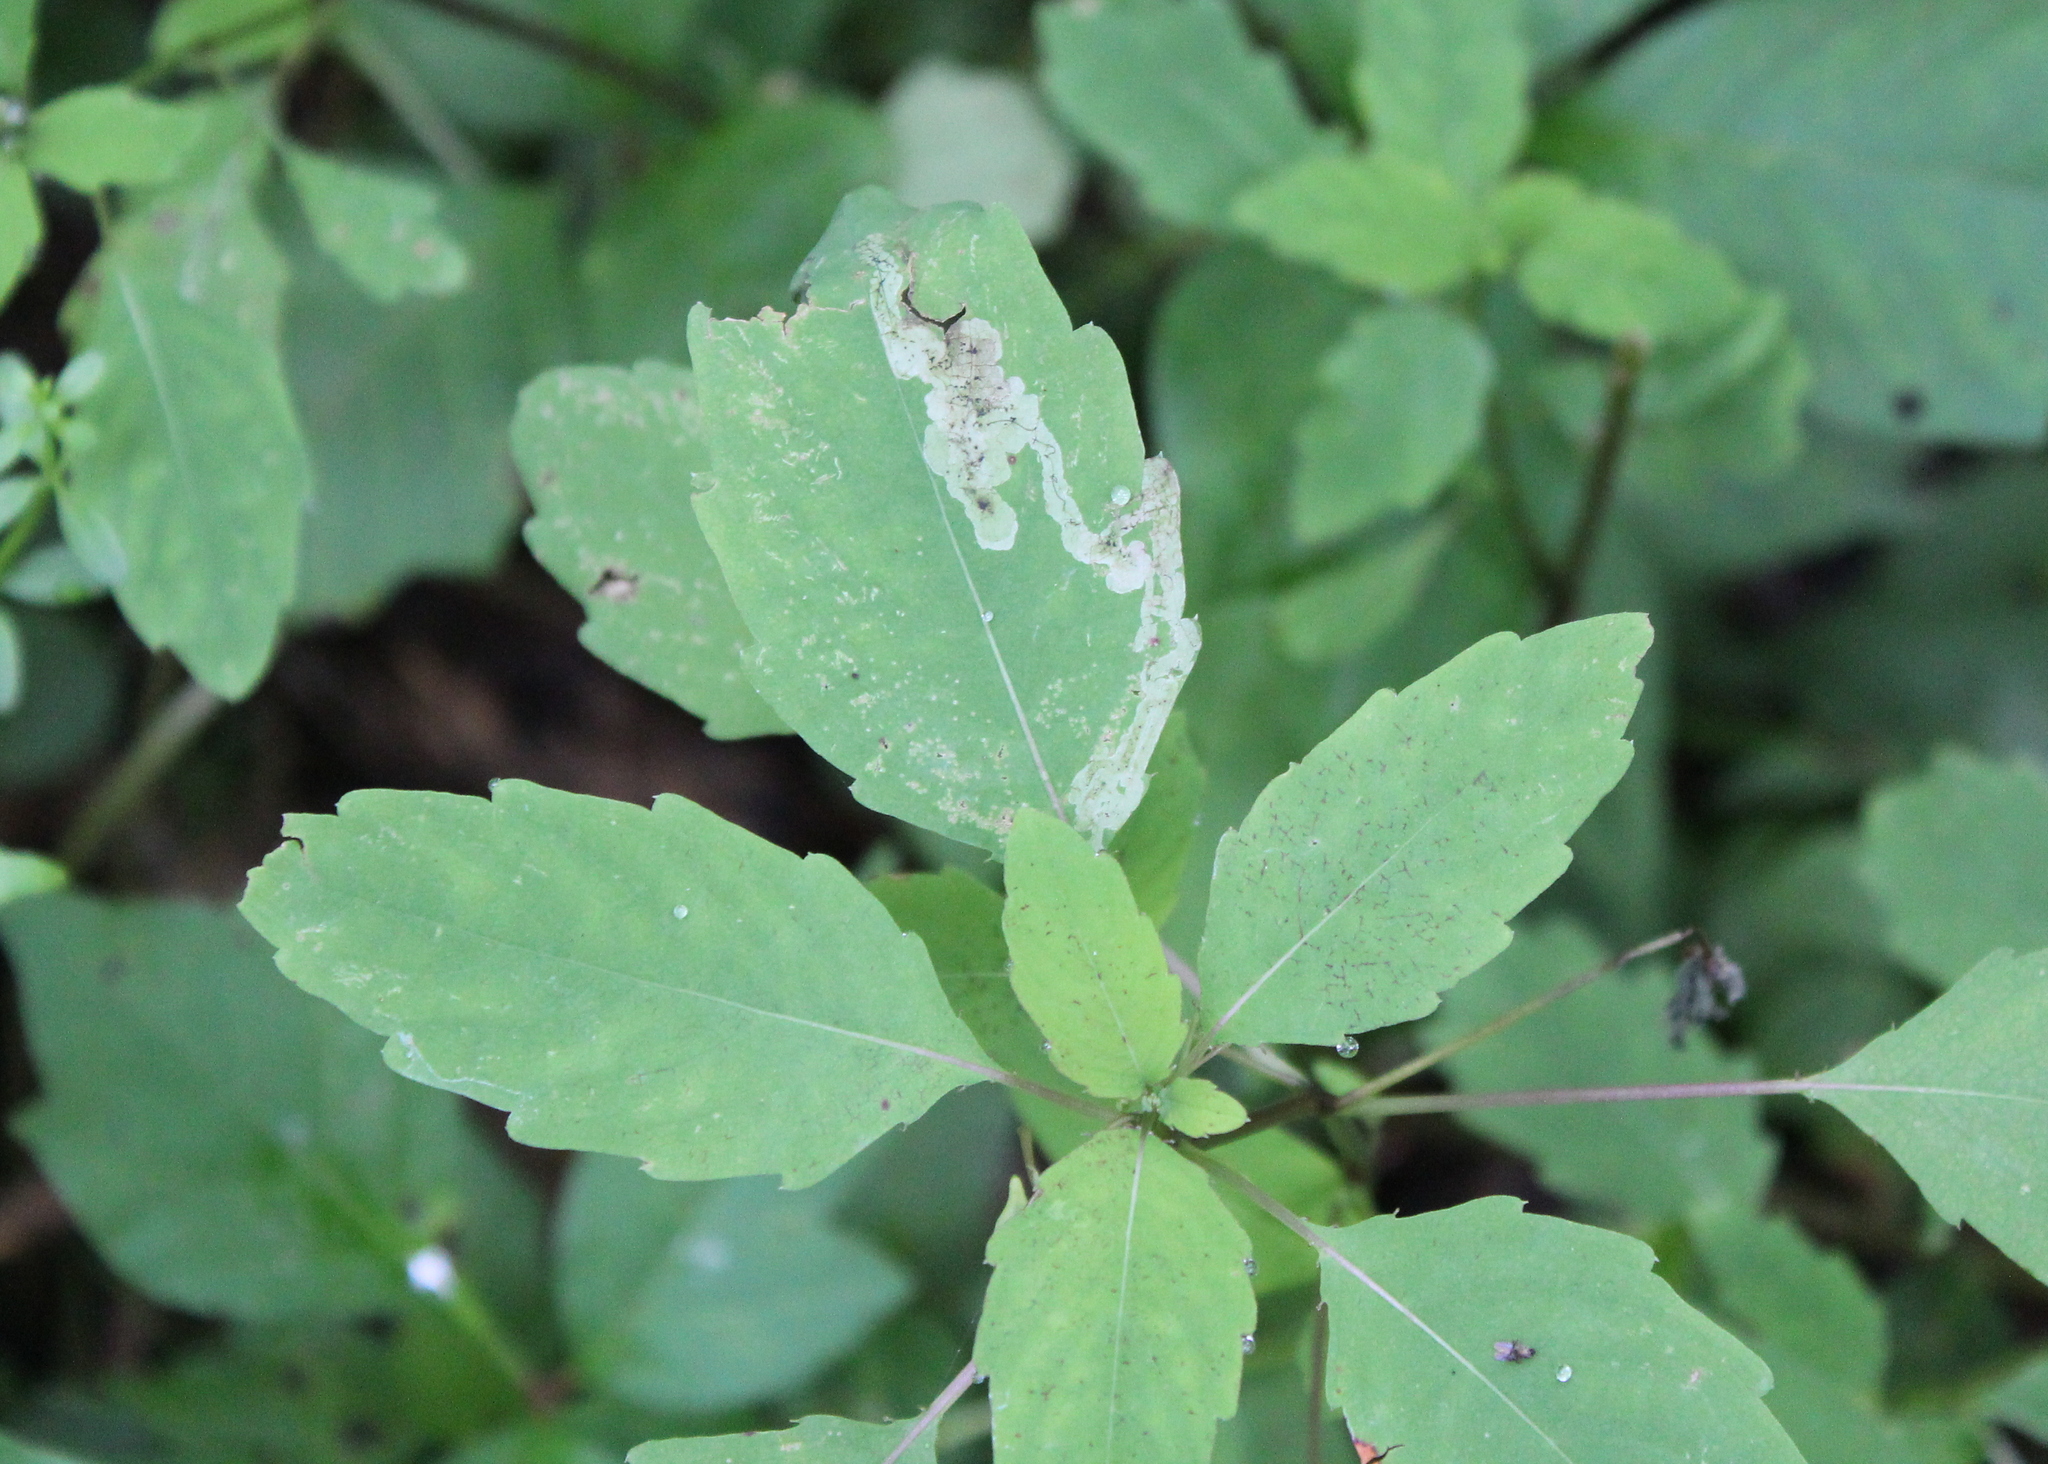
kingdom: Plantae
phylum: Tracheophyta
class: Magnoliopsida
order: Ericales
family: Balsaminaceae
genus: Impatiens
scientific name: Impatiens capensis
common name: Orange balsam
